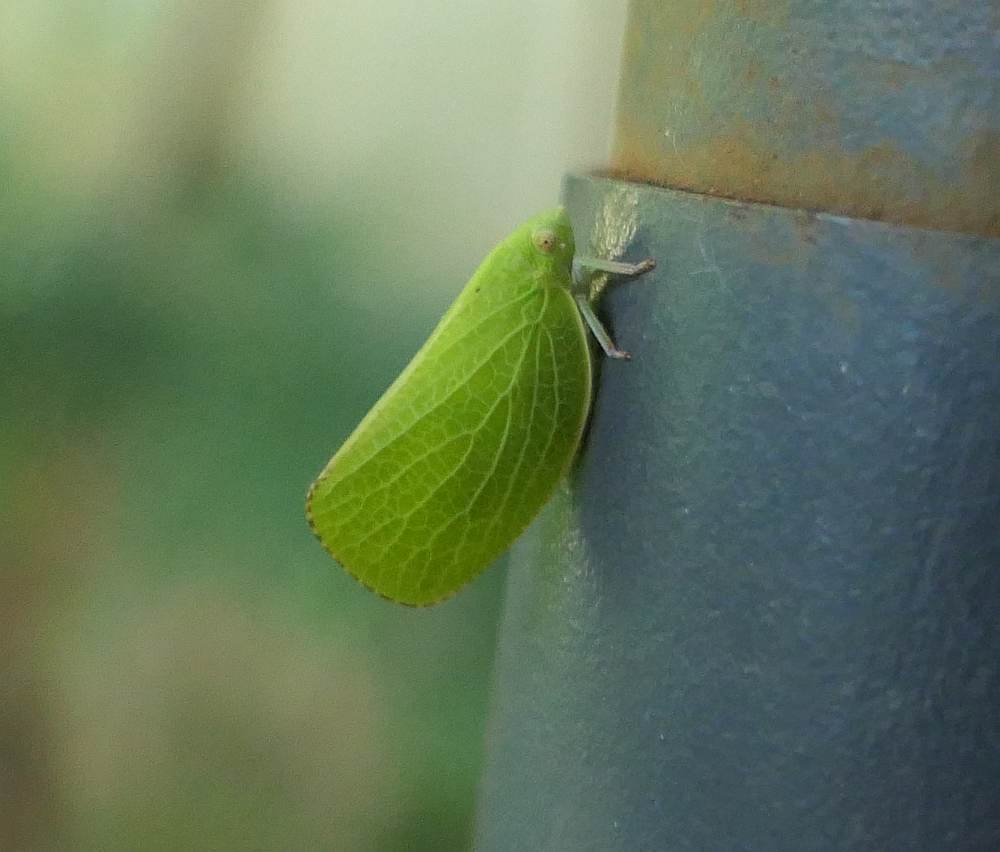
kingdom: Animalia
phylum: Arthropoda
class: Insecta
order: Hemiptera
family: Acanaloniidae
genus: Acanalonia
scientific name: Acanalonia conica
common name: Green cone-headed planthopper
